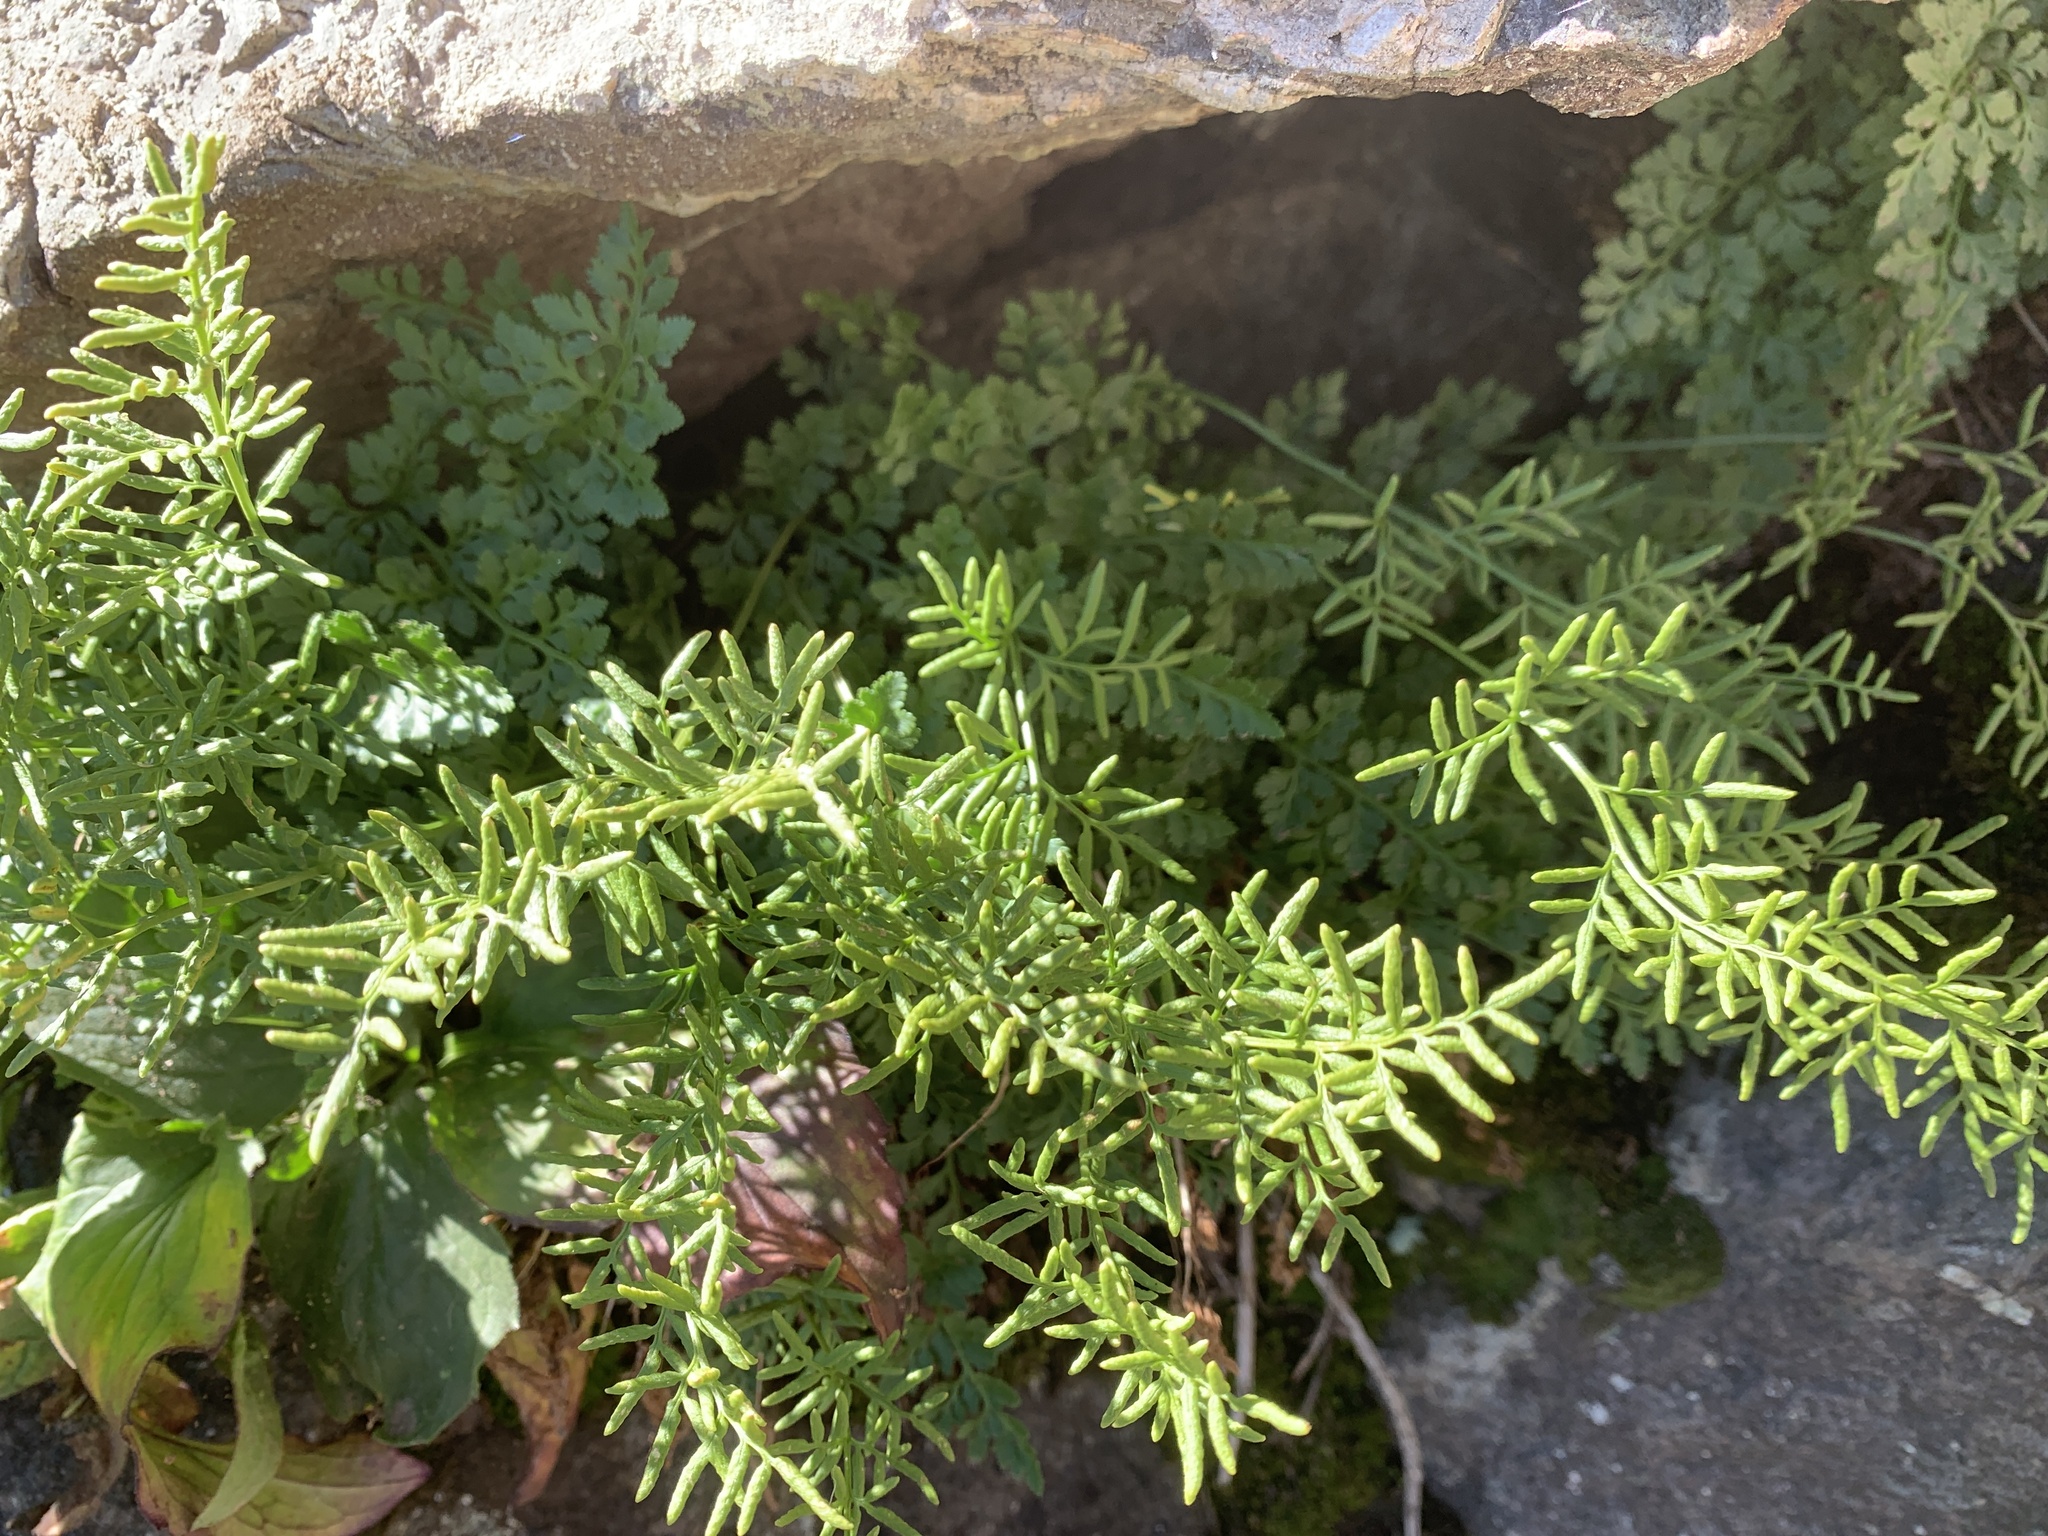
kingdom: Plantae
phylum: Tracheophyta
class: Polypodiopsida
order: Polypodiales
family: Pteridaceae
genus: Cryptogramma
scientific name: Cryptogramma acrostichoides
